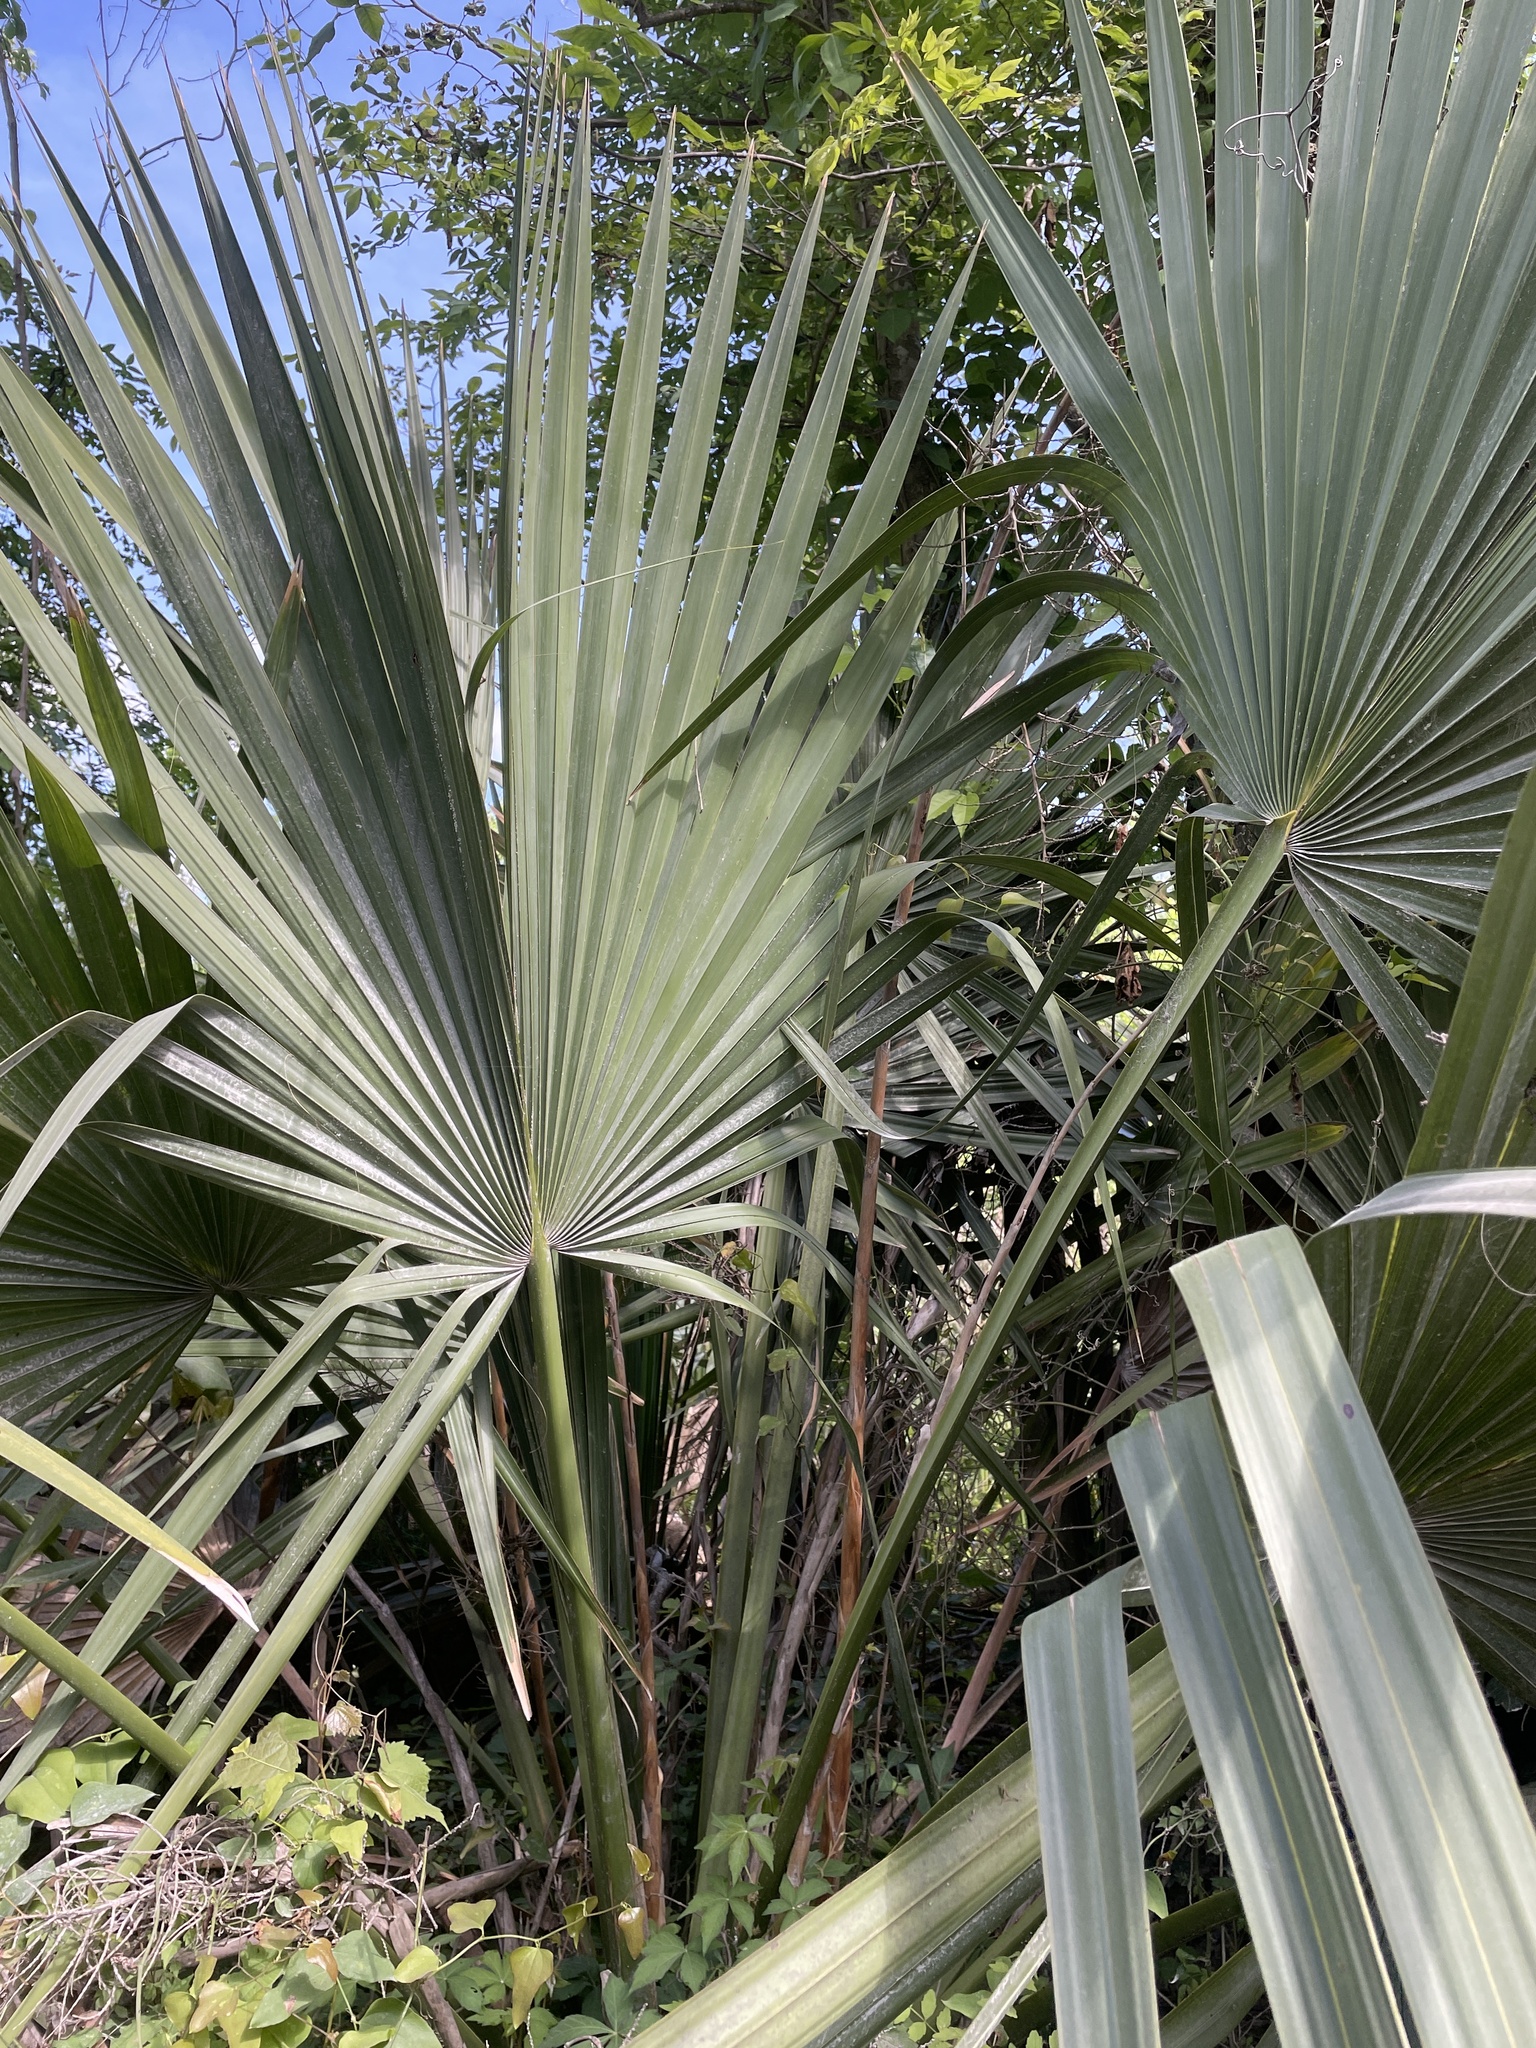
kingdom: Plantae
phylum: Tracheophyta
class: Liliopsida
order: Arecales
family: Arecaceae
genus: Sabal
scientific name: Sabal minor
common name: Dwarf palmetto
